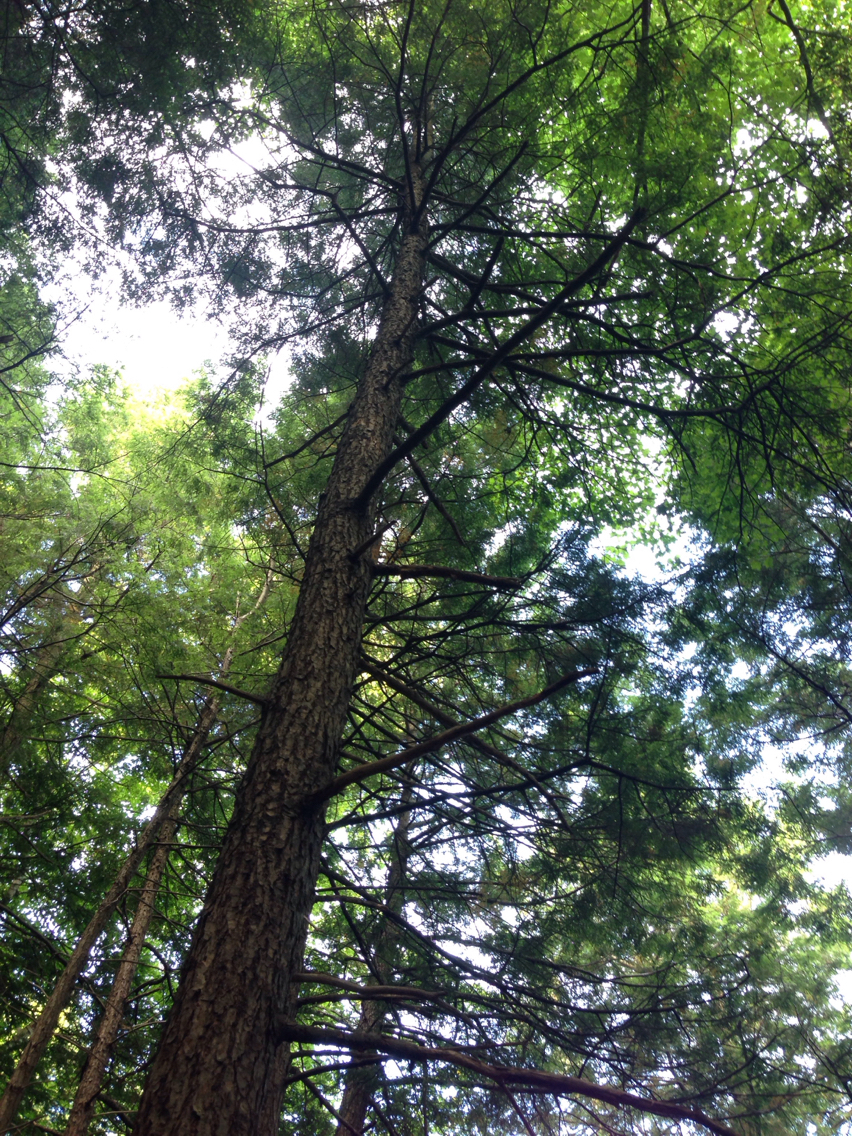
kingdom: Plantae
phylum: Tracheophyta
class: Pinopsida
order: Pinales
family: Pinaceae
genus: Tsuga
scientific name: Tsuga canadensis
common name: Eastern hemlock
